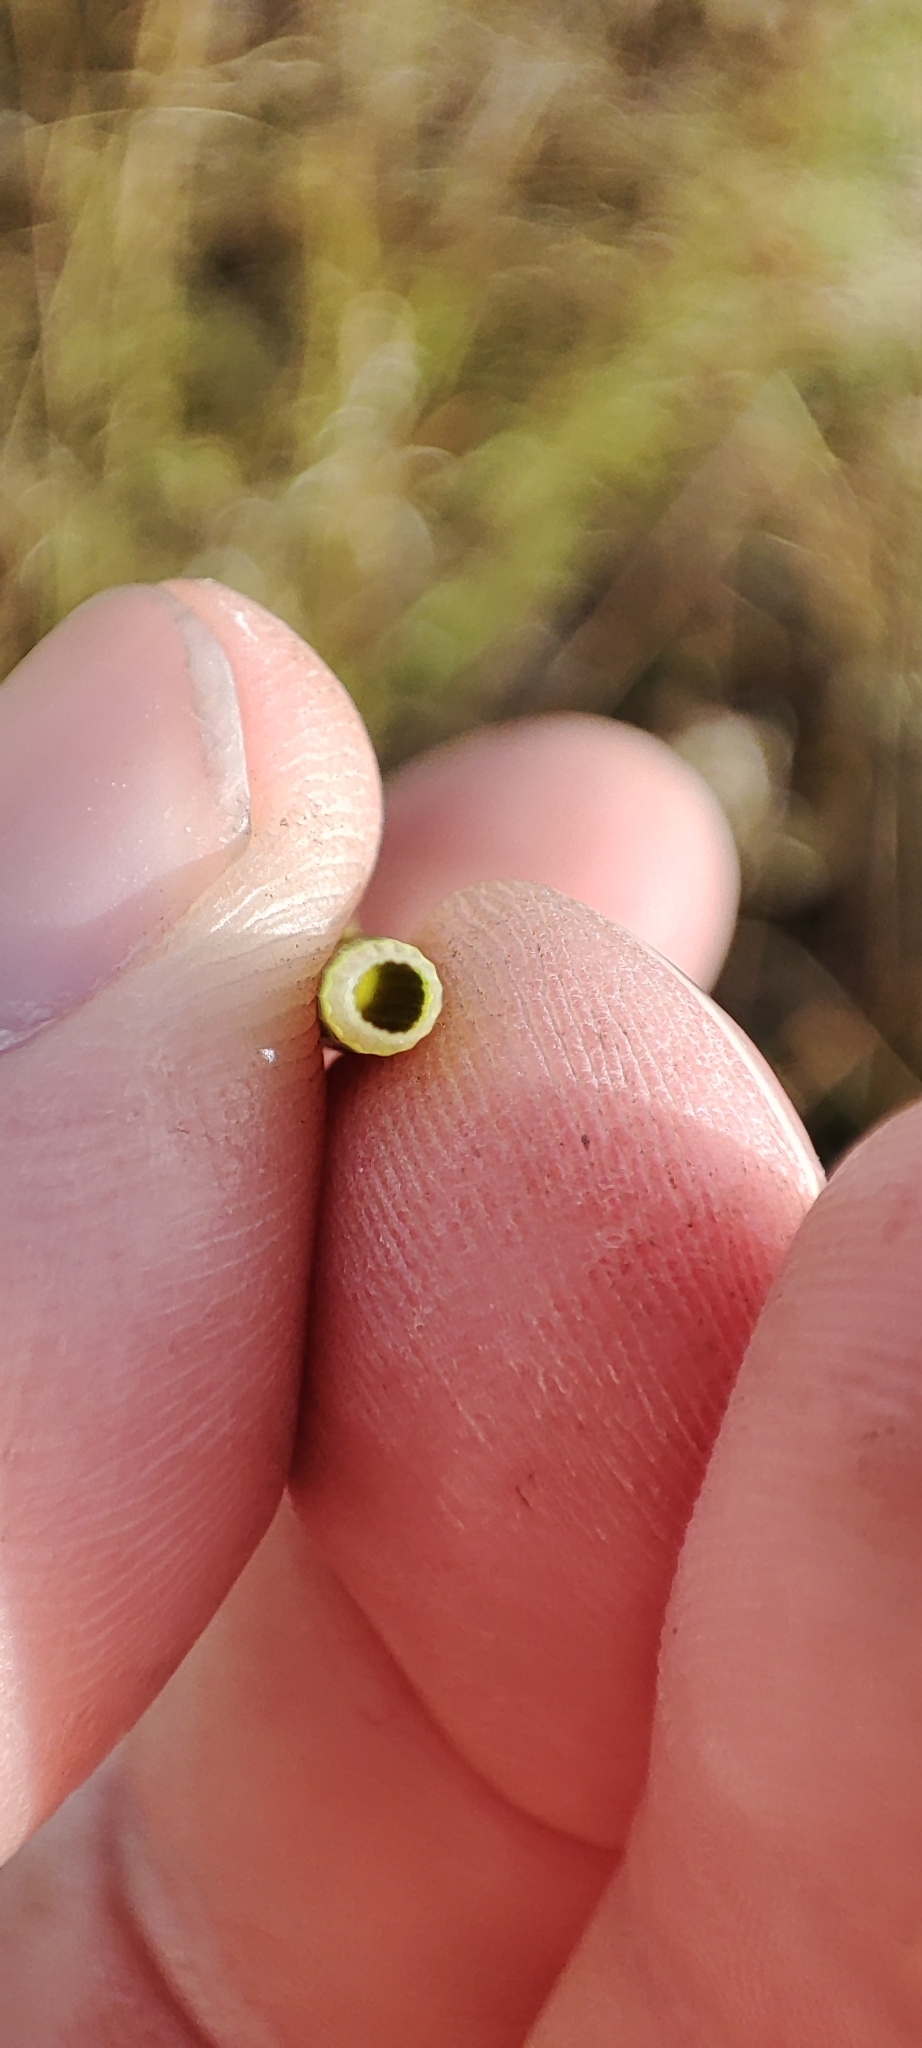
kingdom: Plantae
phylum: Tracheophyta
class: Polypodiopsida
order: Equisetales
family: Equisetaceae
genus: Equisetum
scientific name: Equisetum fluviatile
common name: Water horsetail
